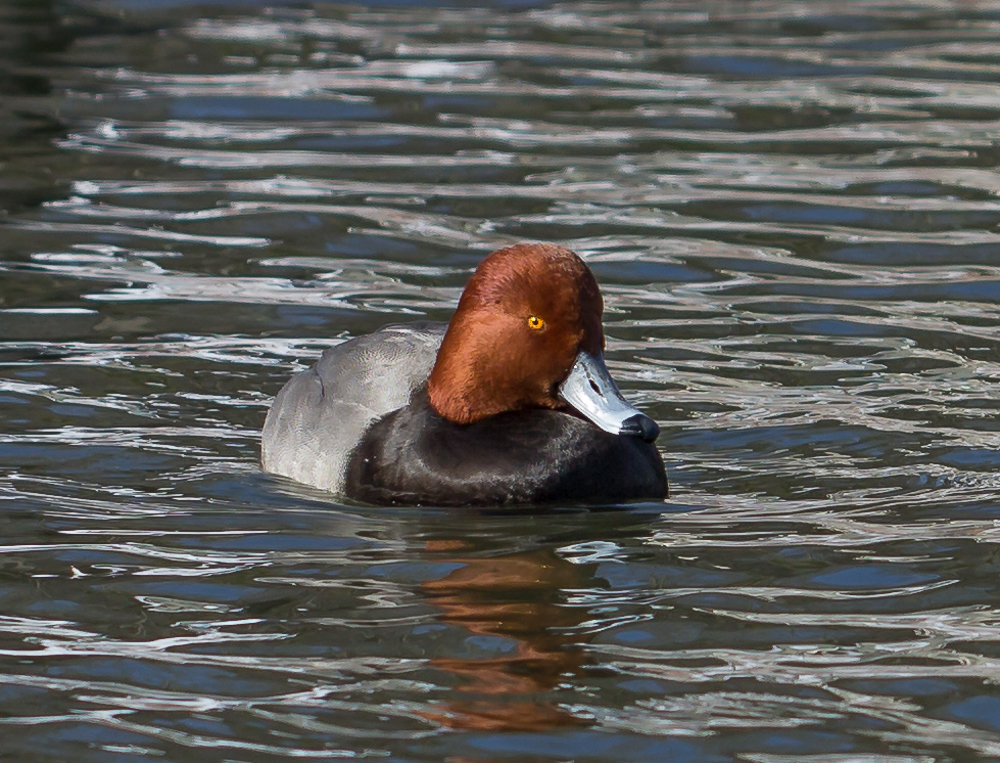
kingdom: Animalia
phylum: Chordata
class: Aves
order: Anseriformes
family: Anatidae
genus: Aythya
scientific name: Aythya americana
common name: Redhead
